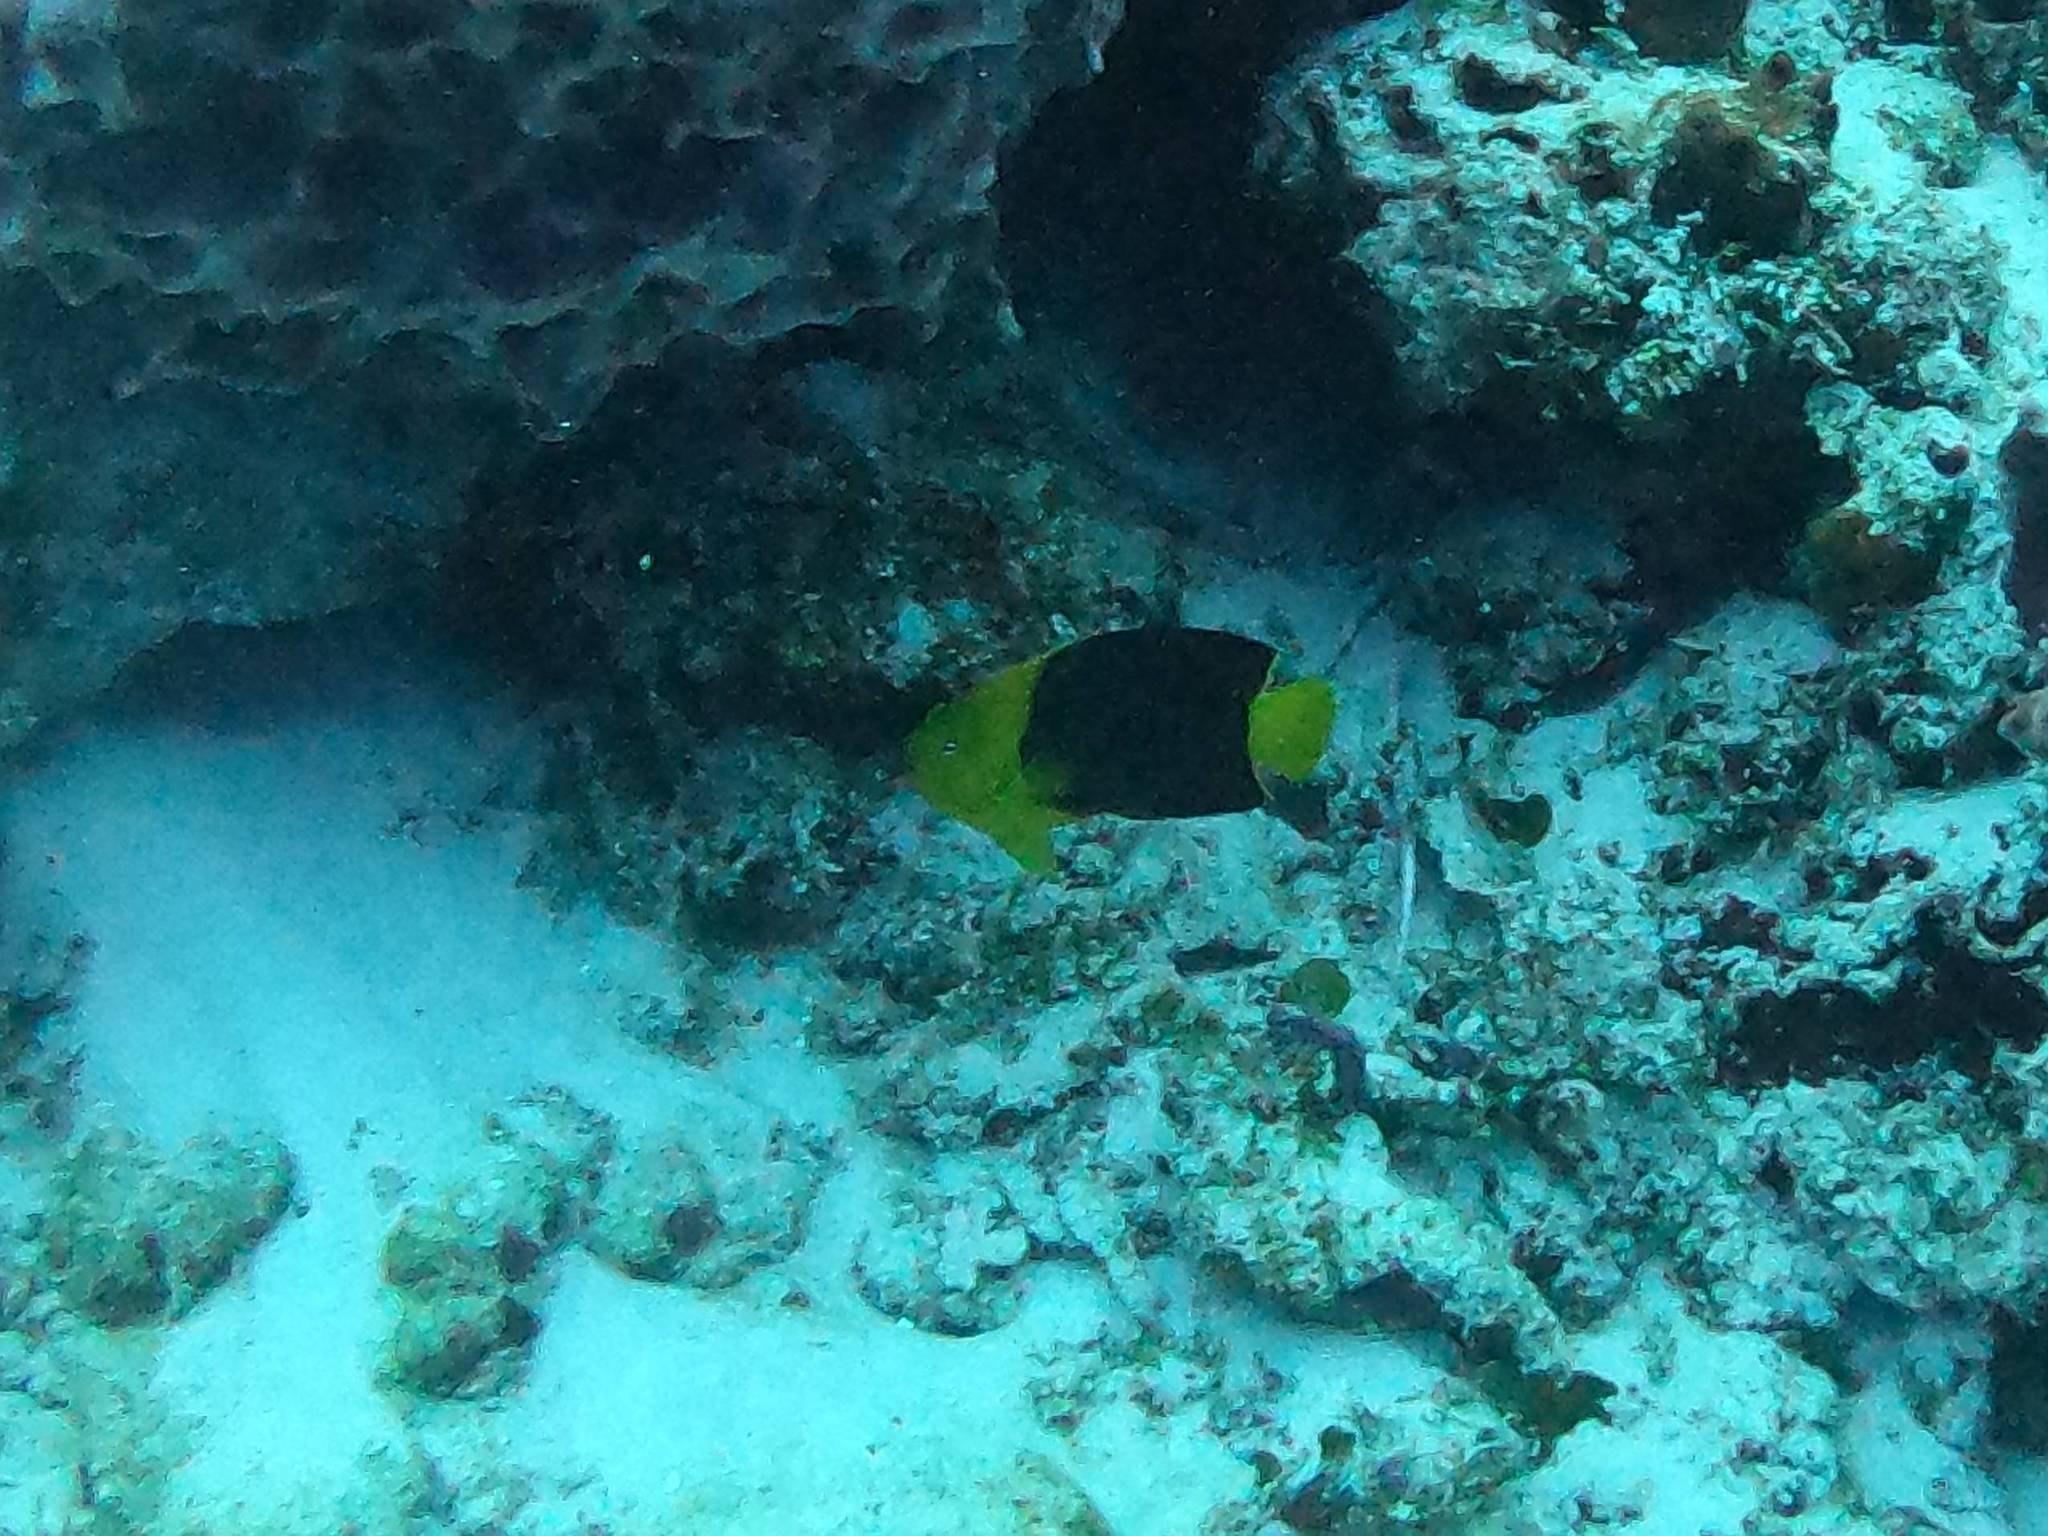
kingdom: Animalia
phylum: Chordata
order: Perciformes
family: Pomacanthidae
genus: Holacanthus
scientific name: Holacanthus tricolor
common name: Rock beauty
